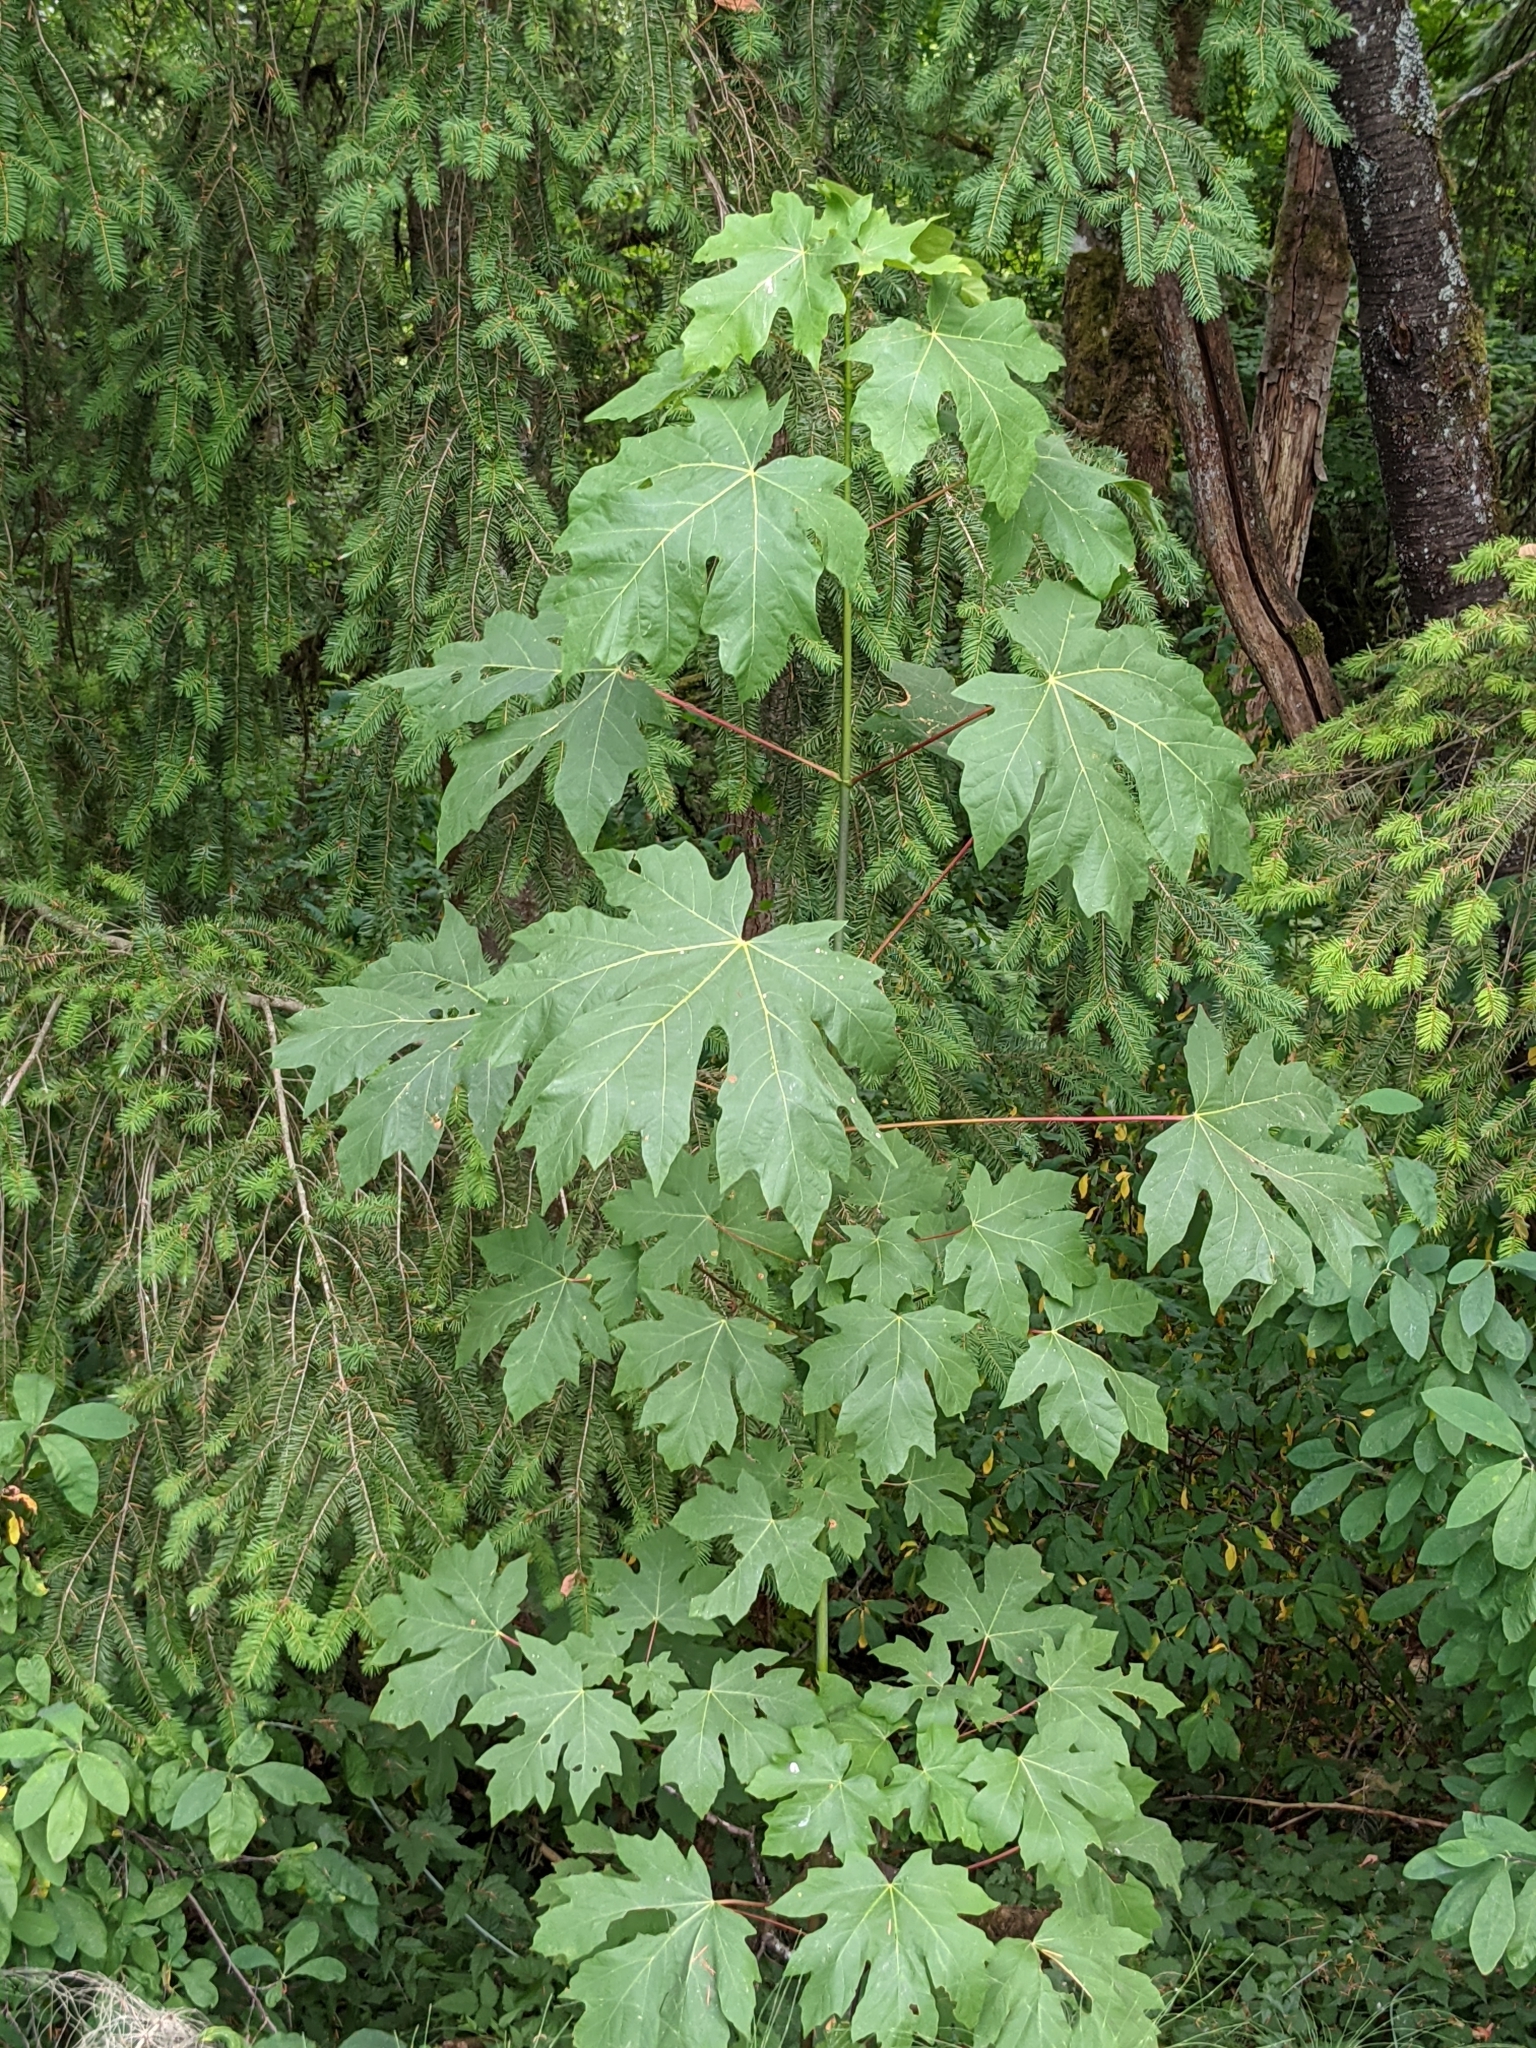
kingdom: Plantae
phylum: Tracheophyta
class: Magnoliopsida
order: Sapindales
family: Sapindaceae
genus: Acer
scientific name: Acer macrophyllum
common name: Oregon maple
